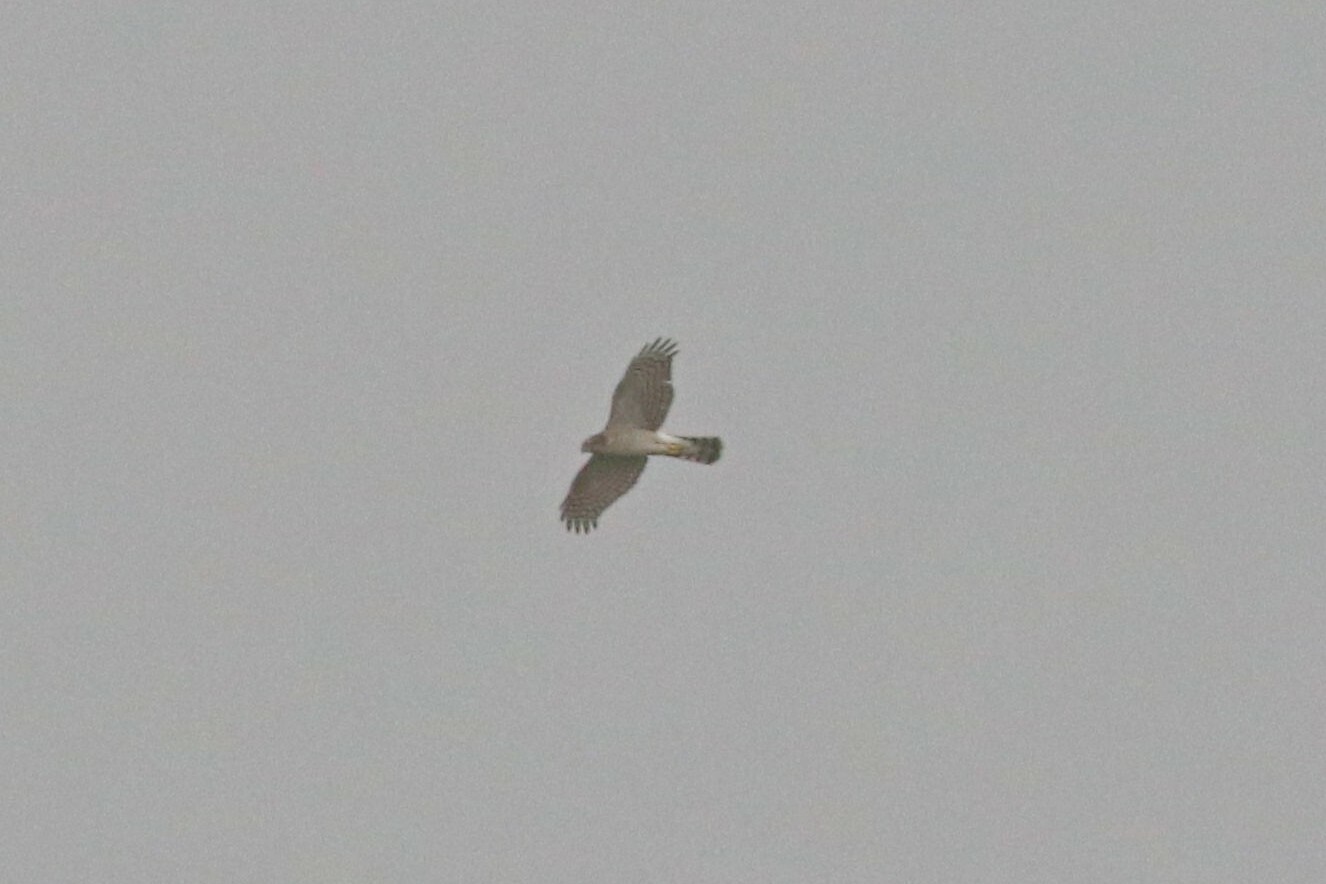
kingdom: Animalia
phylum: Chordata
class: Aves
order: Accipitriformes
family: Accipitridae
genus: Accipiter
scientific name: Accipiter nisus
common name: Eurasian sparrowhawk
